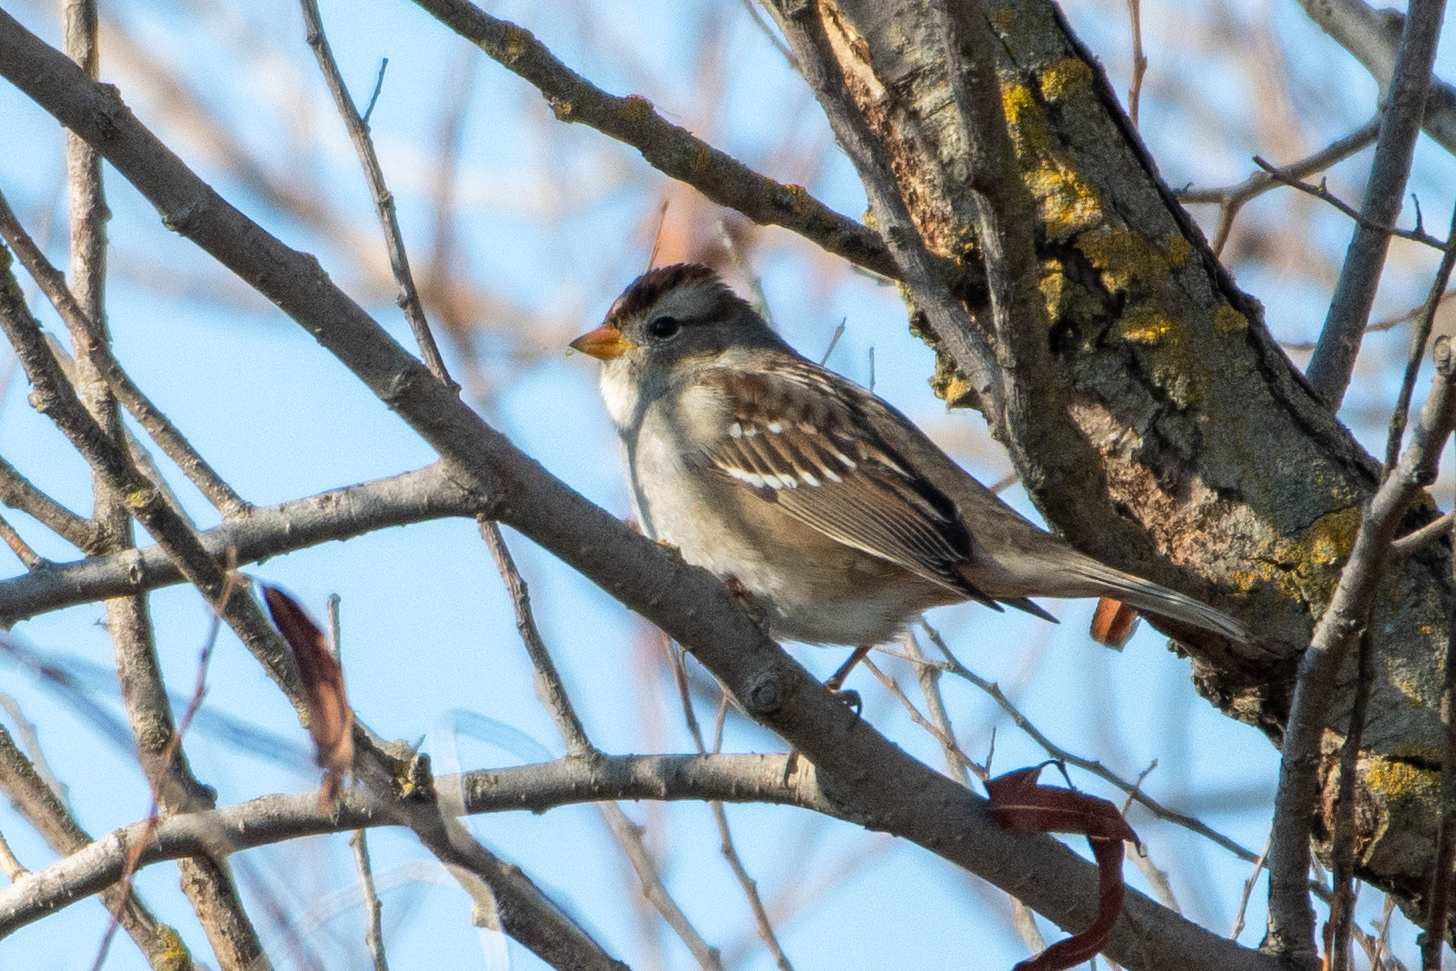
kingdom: Animalia
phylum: Chordata
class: Aves
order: Passeriformes
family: Passerellidae
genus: Zonotrichia
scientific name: Zonotrichia leucophrys
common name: White-crowned sparrow
